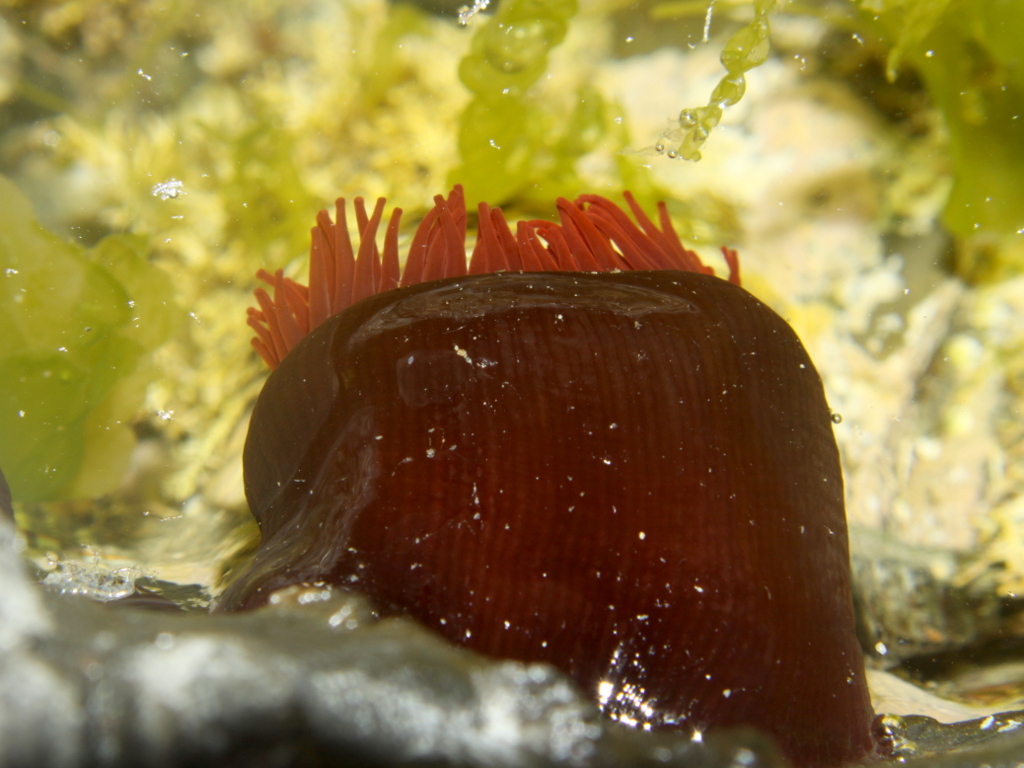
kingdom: Animalia
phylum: Cnidaria
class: Anthozoa
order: Actiniaria
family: Actiniidae
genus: Actinia
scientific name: Actinia tenebrosa
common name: Waratah anemone
